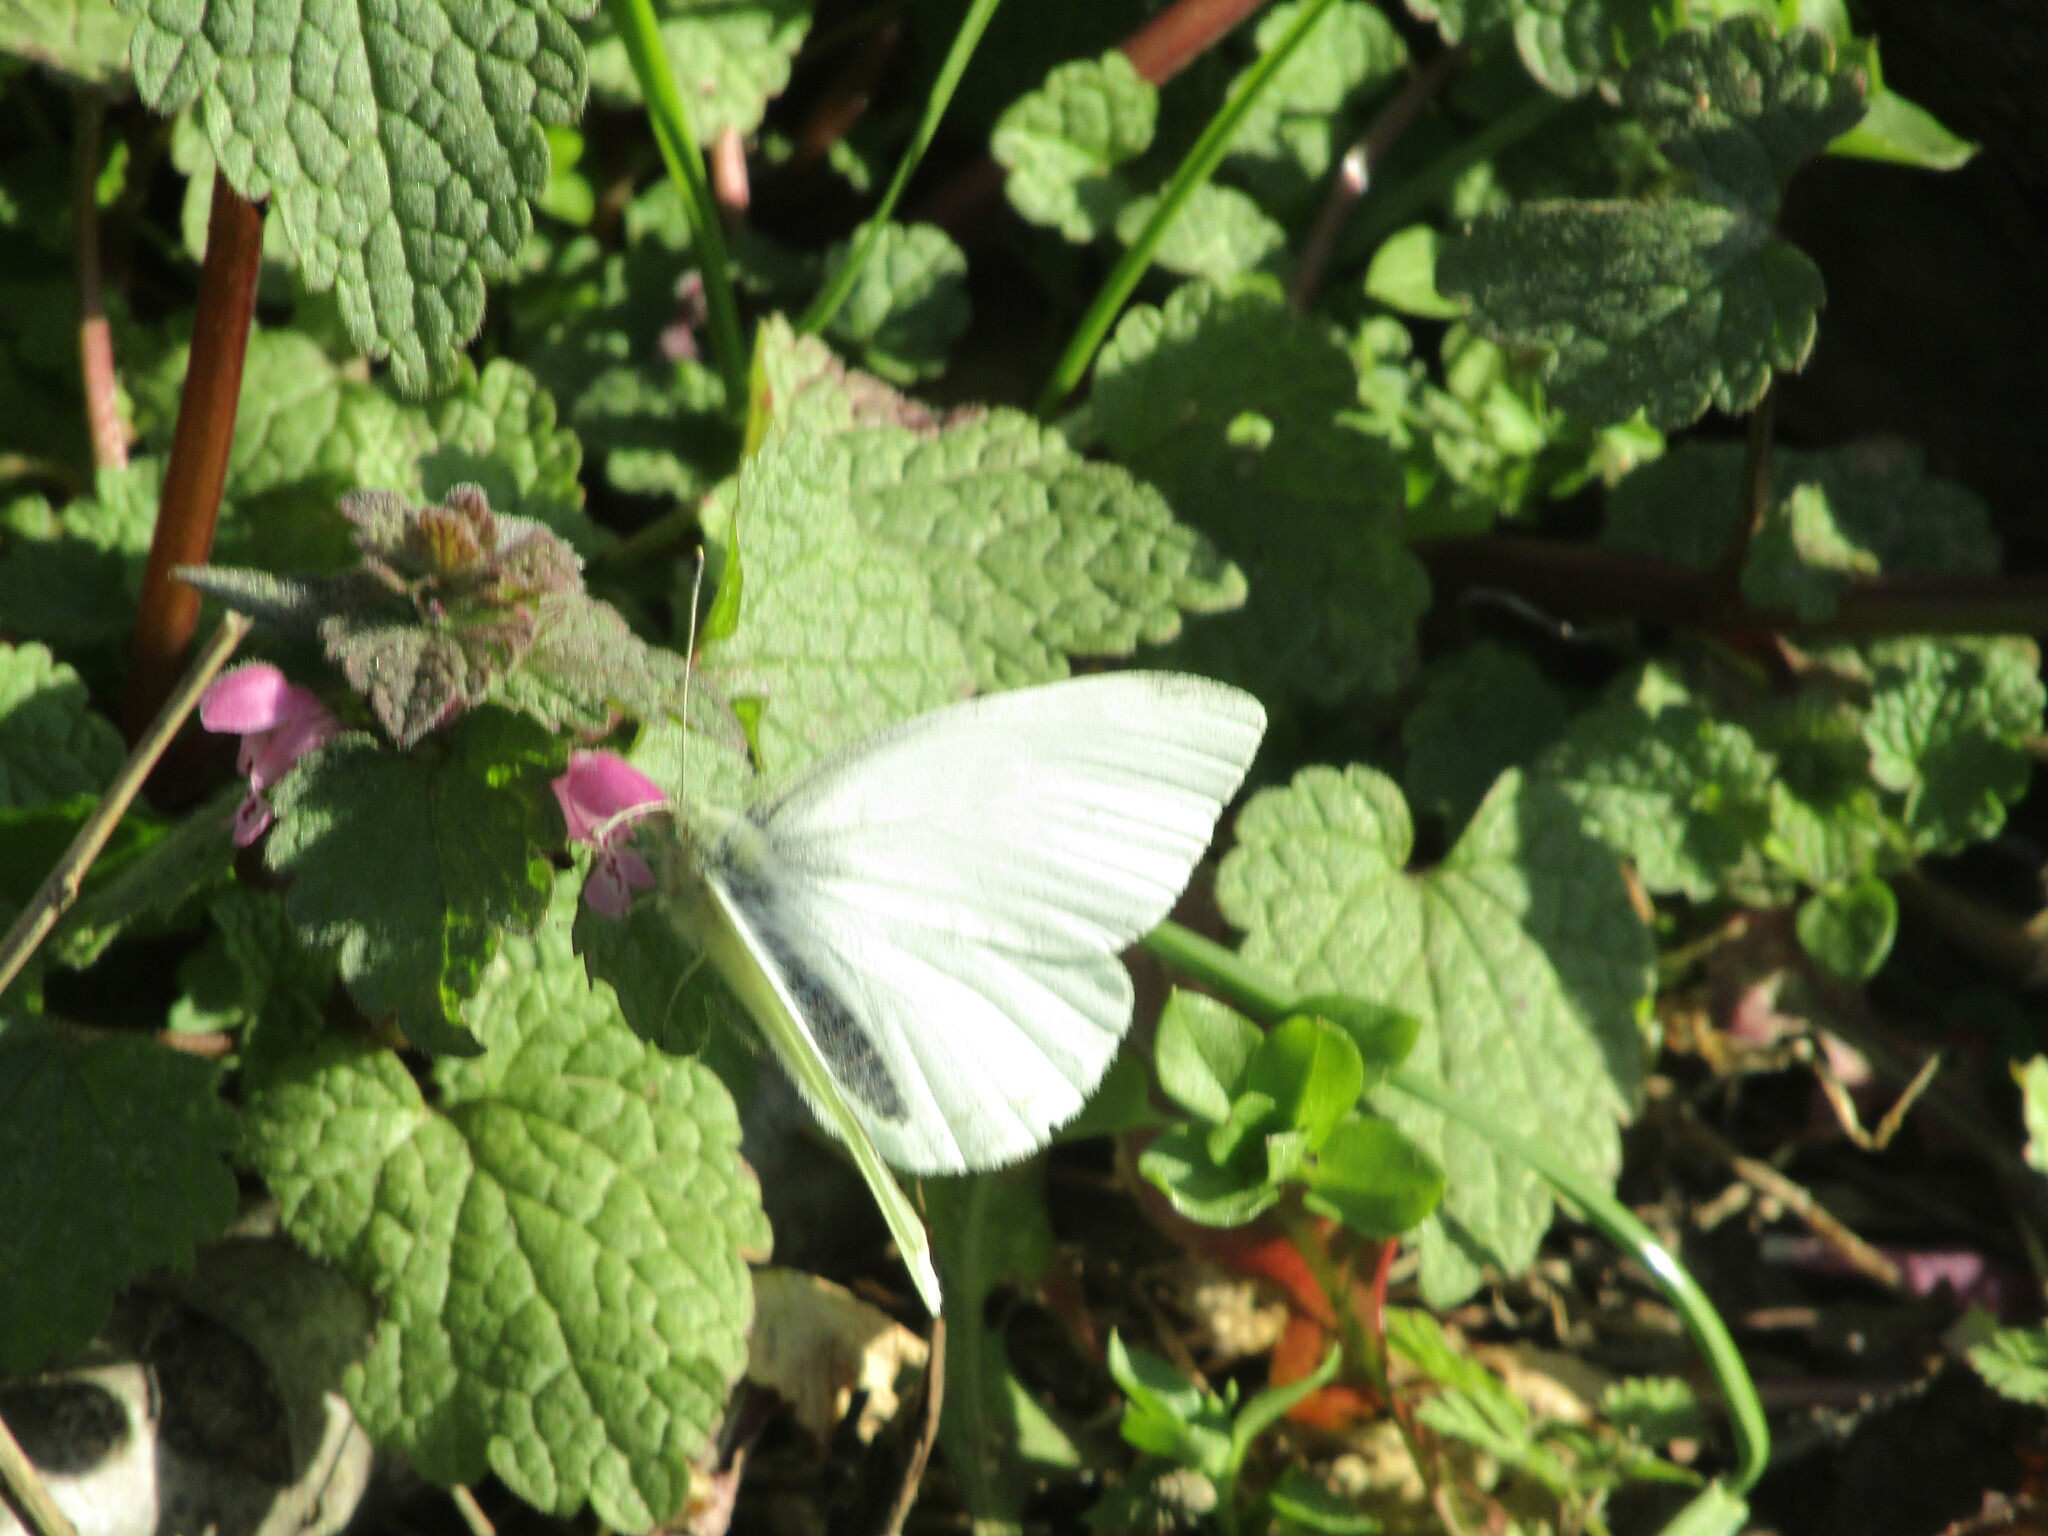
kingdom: Animalia
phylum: Arthropoda
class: Insecta
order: Lepidoptera
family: Pieridae
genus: Pieris
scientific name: Pieris rapae
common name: Small white
